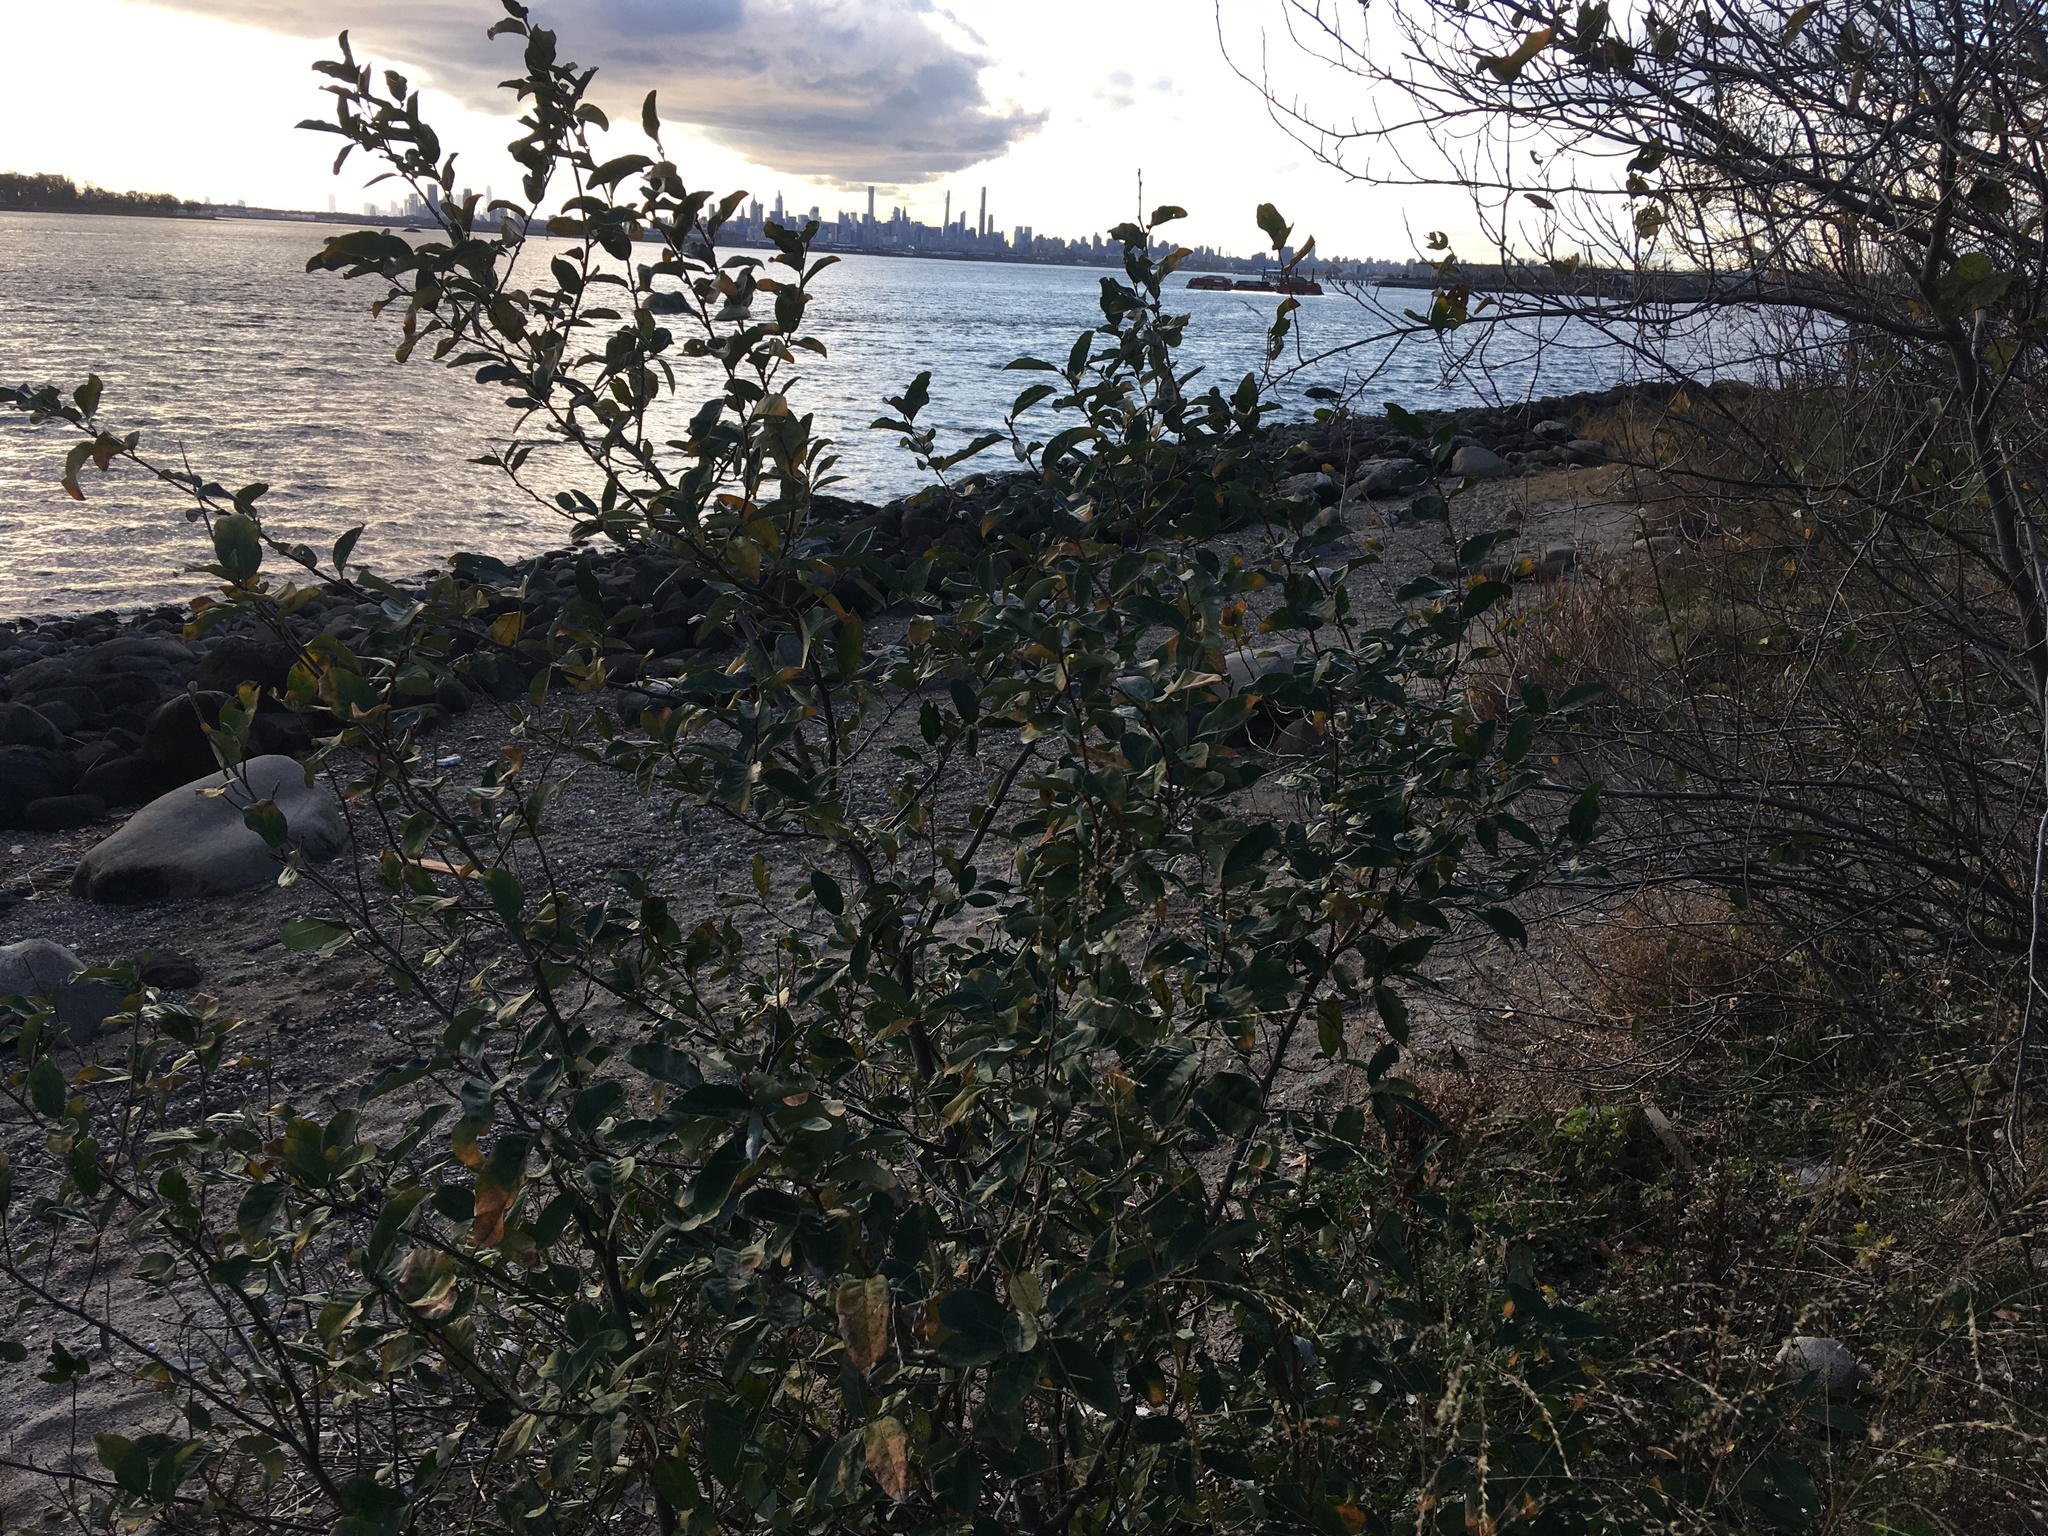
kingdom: Plantae
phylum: Tracheophyta
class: Magnoliopsida
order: Rosales
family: Elaeagnaceae
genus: Elaeagnus
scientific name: Elaeagnus umbellata
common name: Autumn olive
